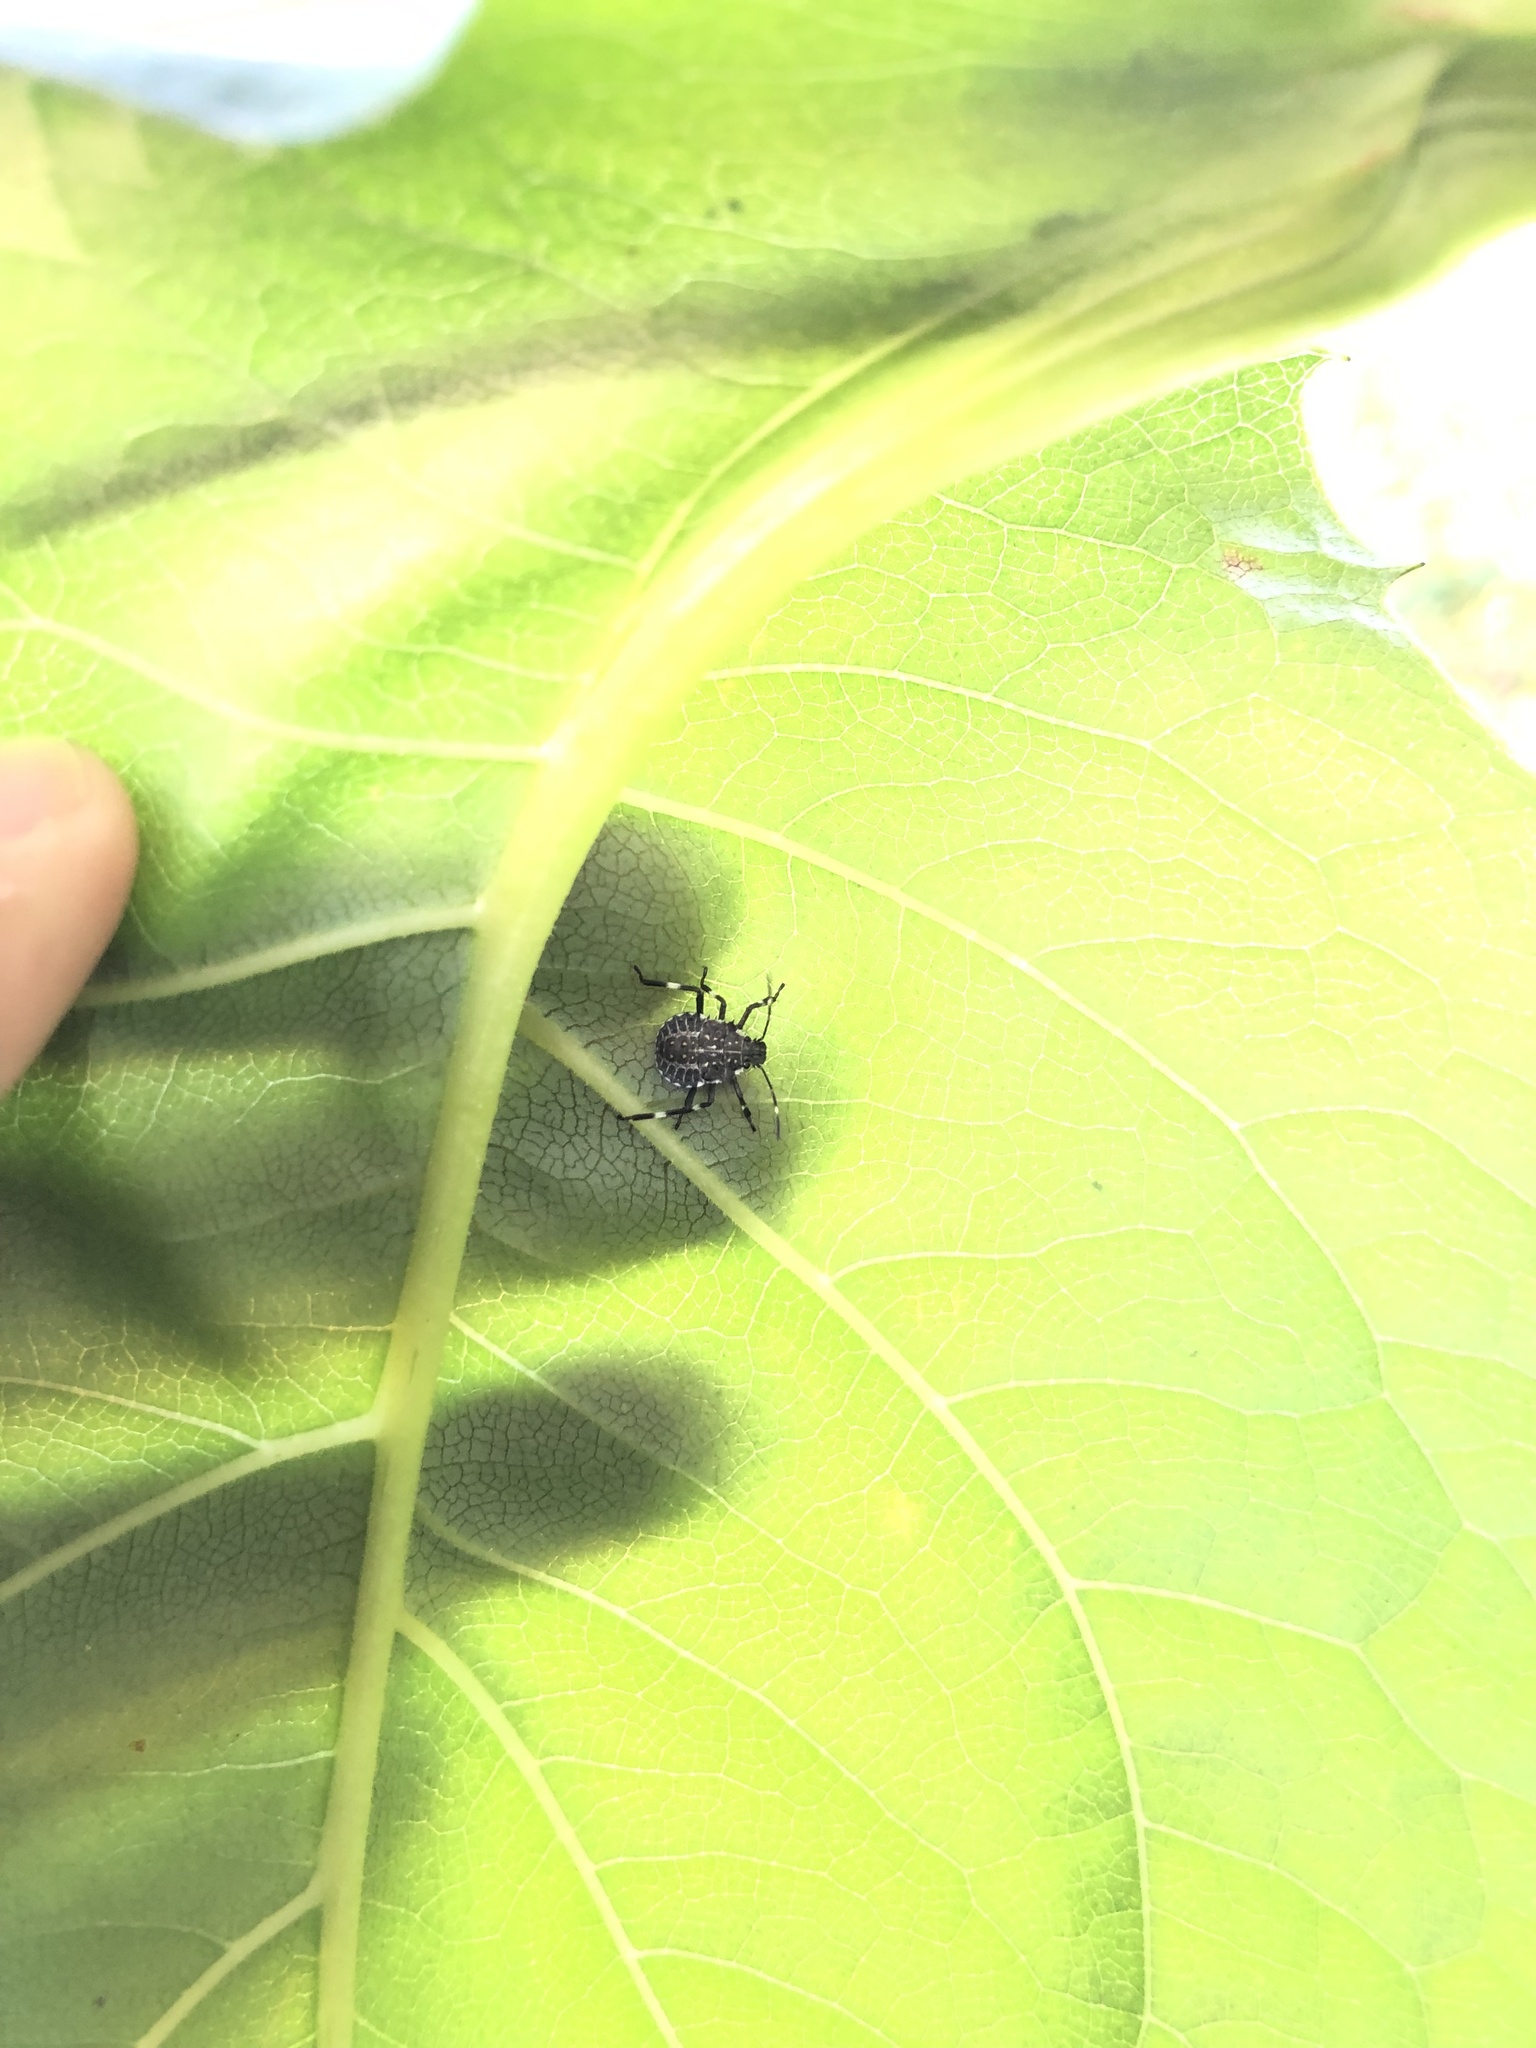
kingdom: Animalia
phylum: Arthropoda
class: Insecta
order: Hemiptera
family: Pentatomidae
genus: Halyomorpha
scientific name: Halyomorpha halys
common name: Brown marmorated stink bug
